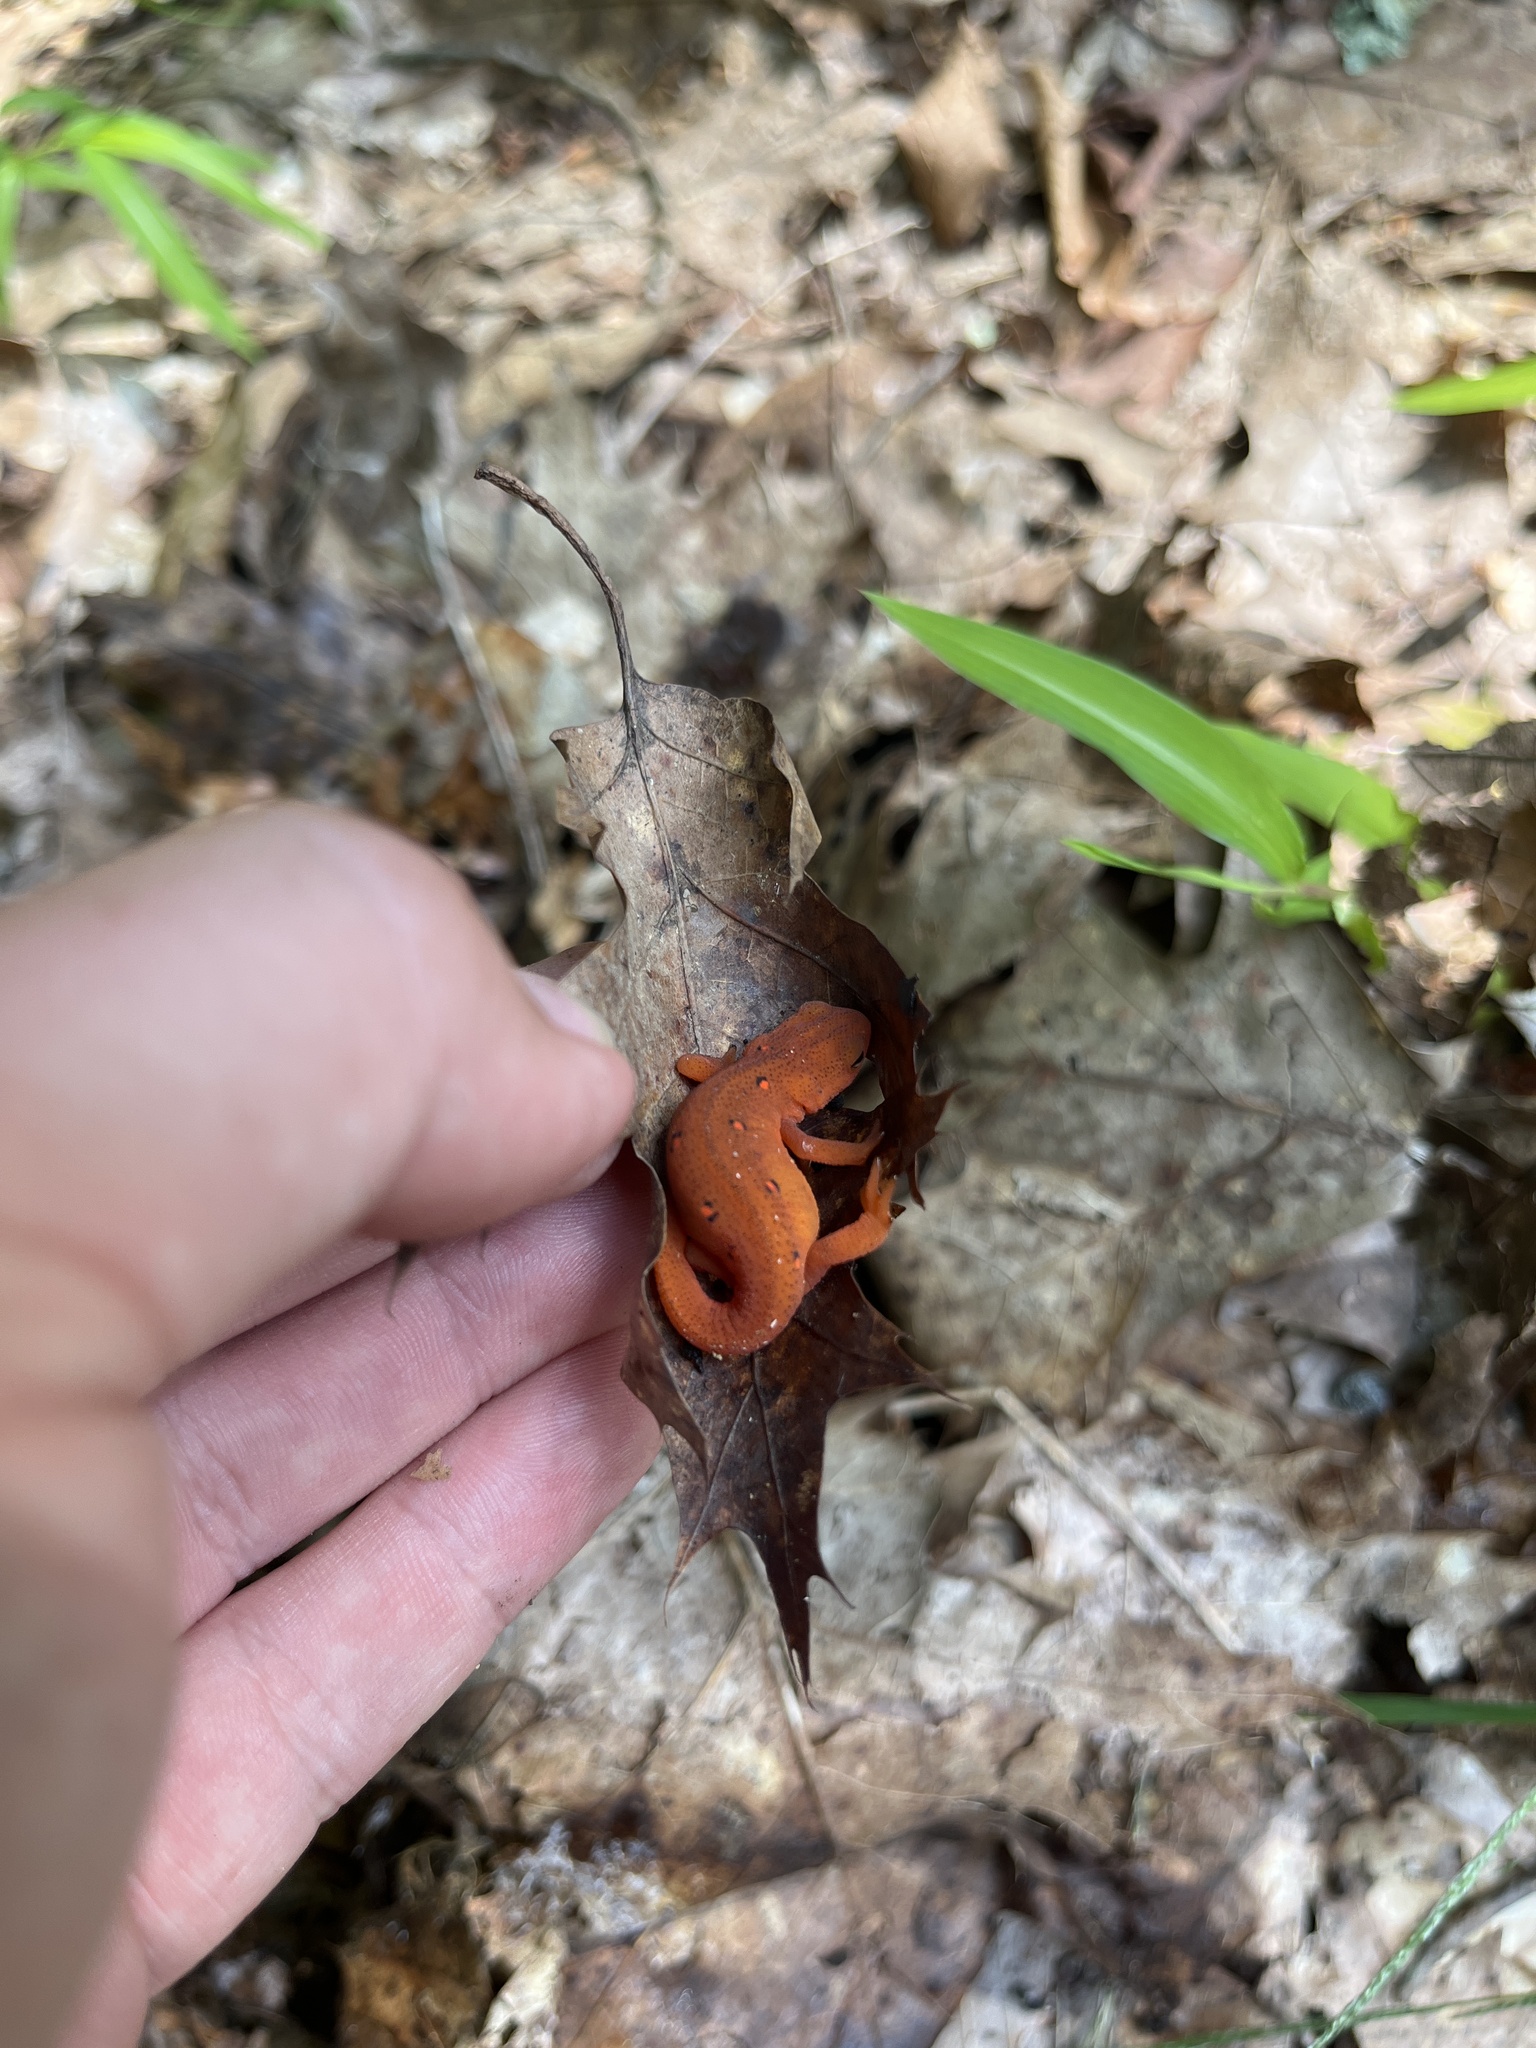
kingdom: Animalia
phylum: Chordata
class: Amphibia
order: Caudata
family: Salamandridae
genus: Notophthalmus
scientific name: Notophthalmus viridescens
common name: Eastern newt
